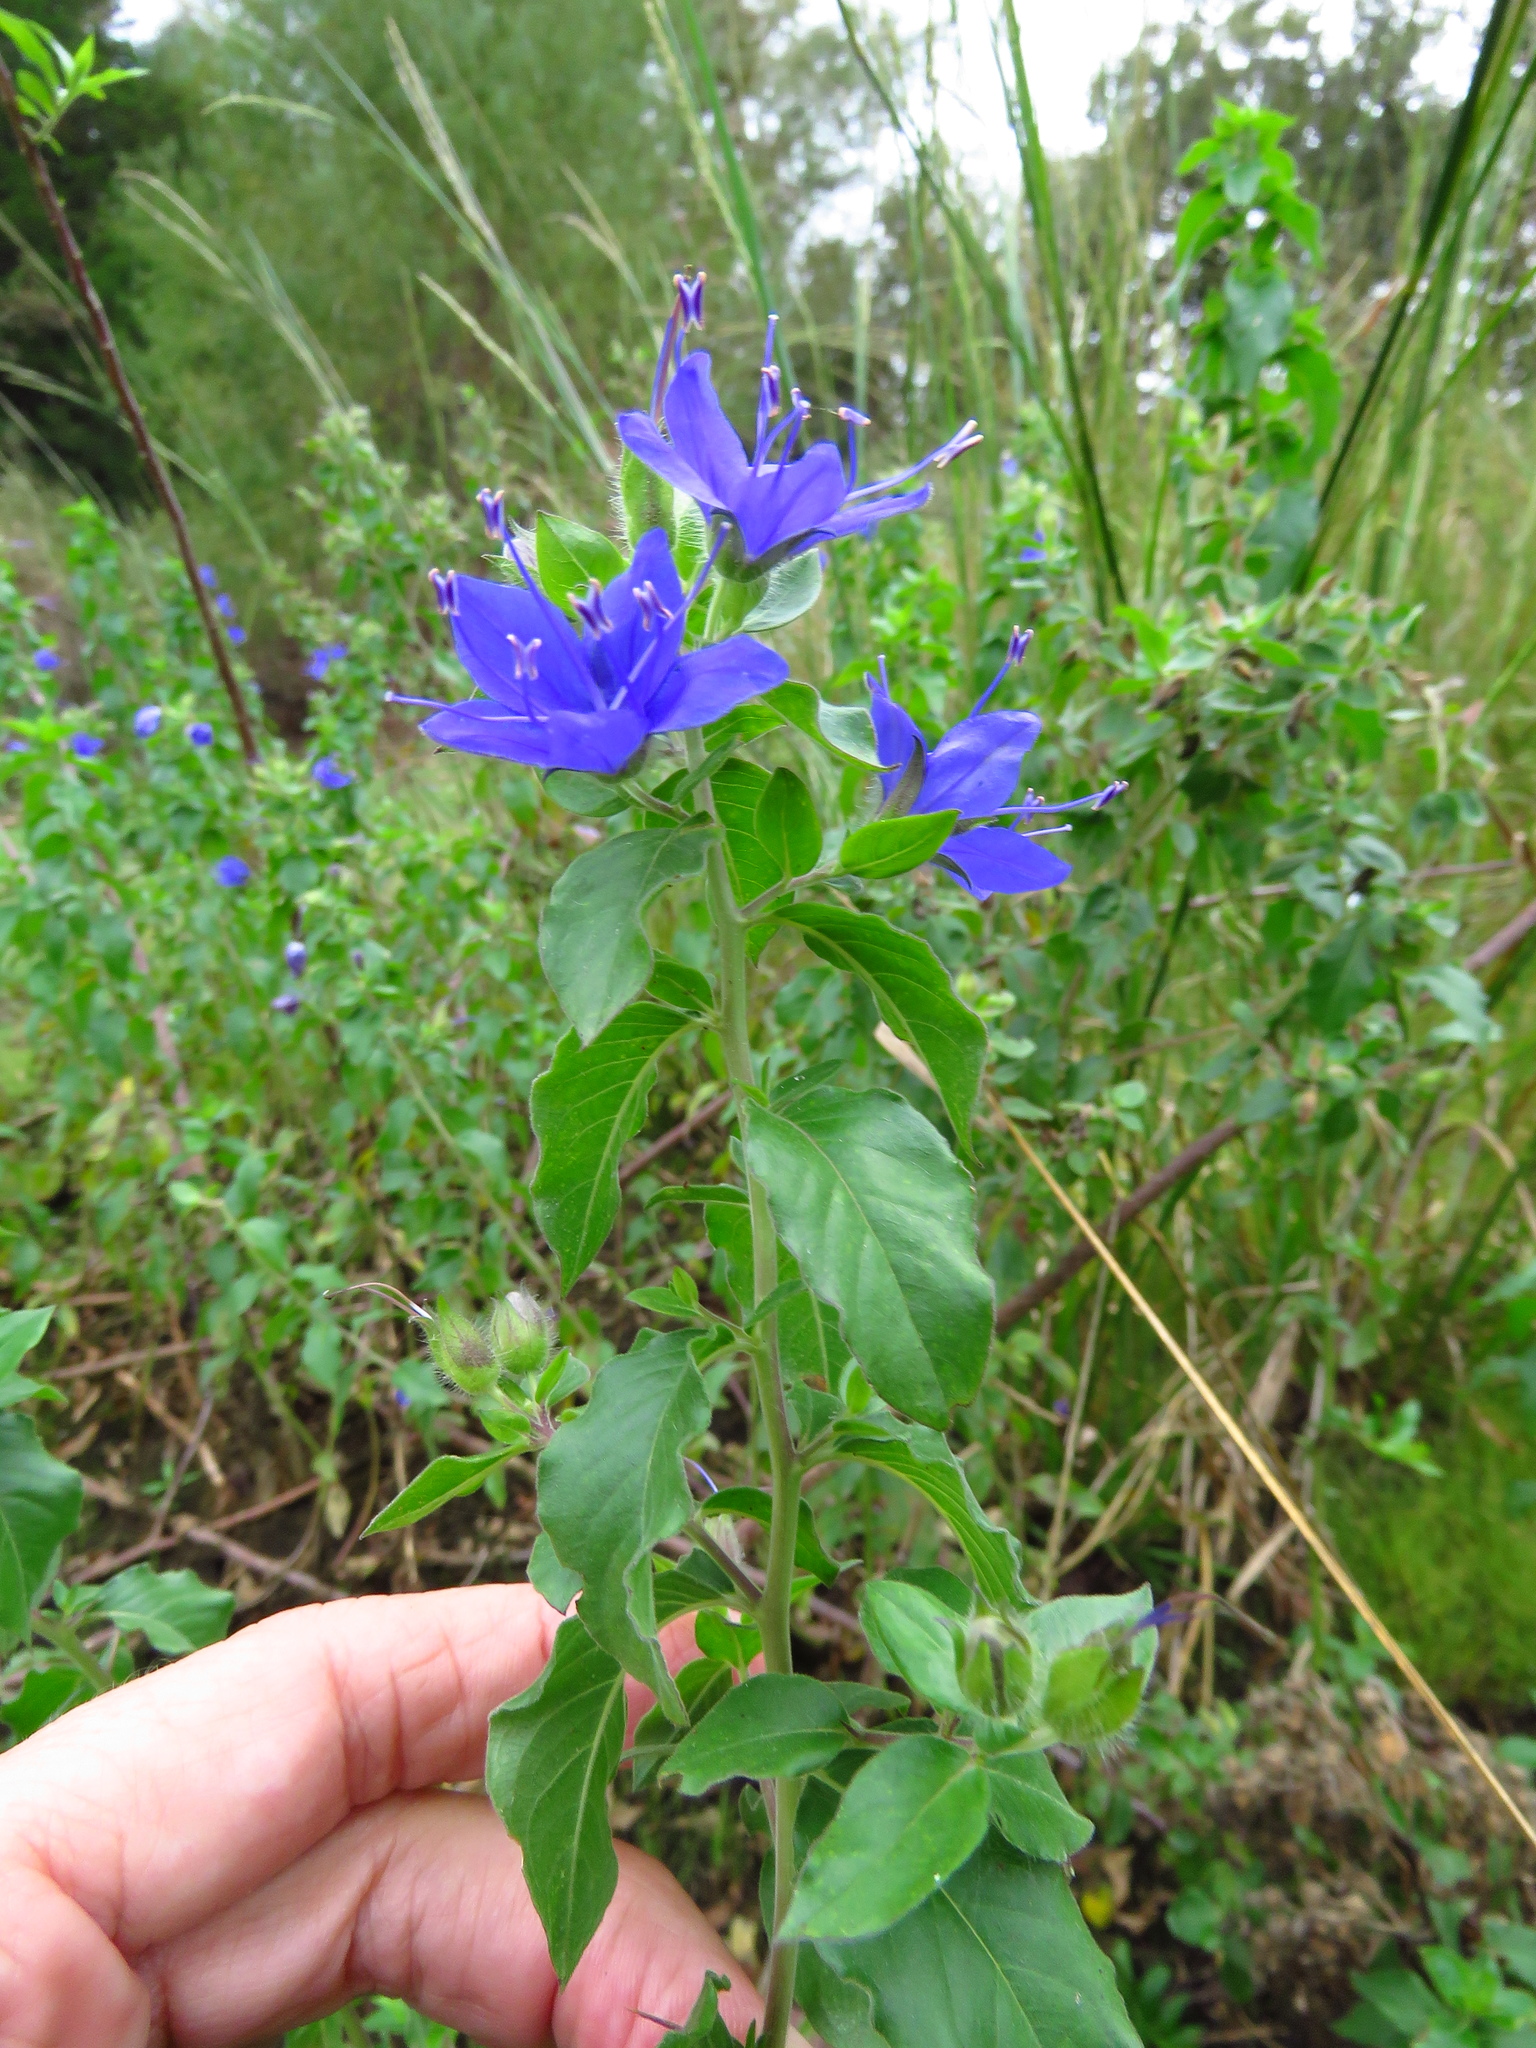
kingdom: Plantae
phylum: Tracheophyta
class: Magnoliopsida
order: Solanales
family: Hydroleaceae
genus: Hydrolea
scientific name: Hydrolea ovata
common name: Ovate false fiddleleaf
